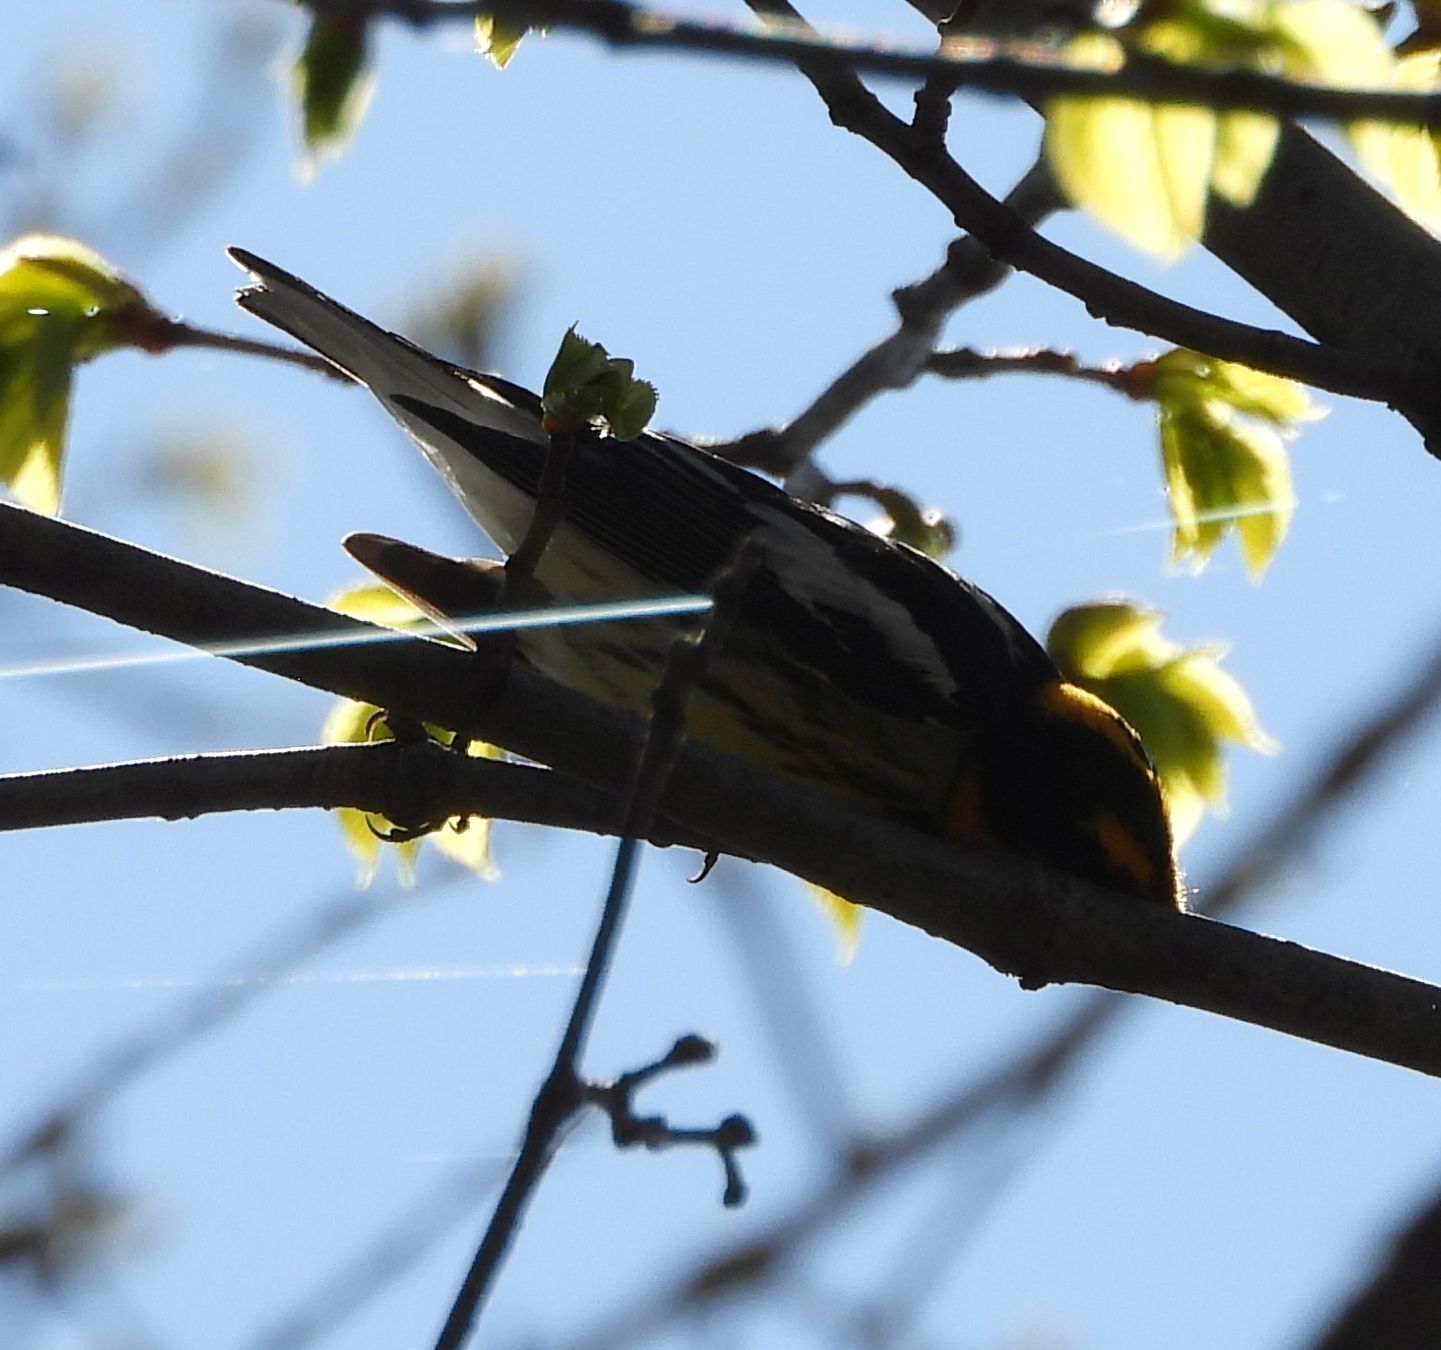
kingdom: Animalia
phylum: Chordata
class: Aves
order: Passeriformes
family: Parulidae
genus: Setophaga
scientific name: Setophaga fusca
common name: Blackburnian warbler
